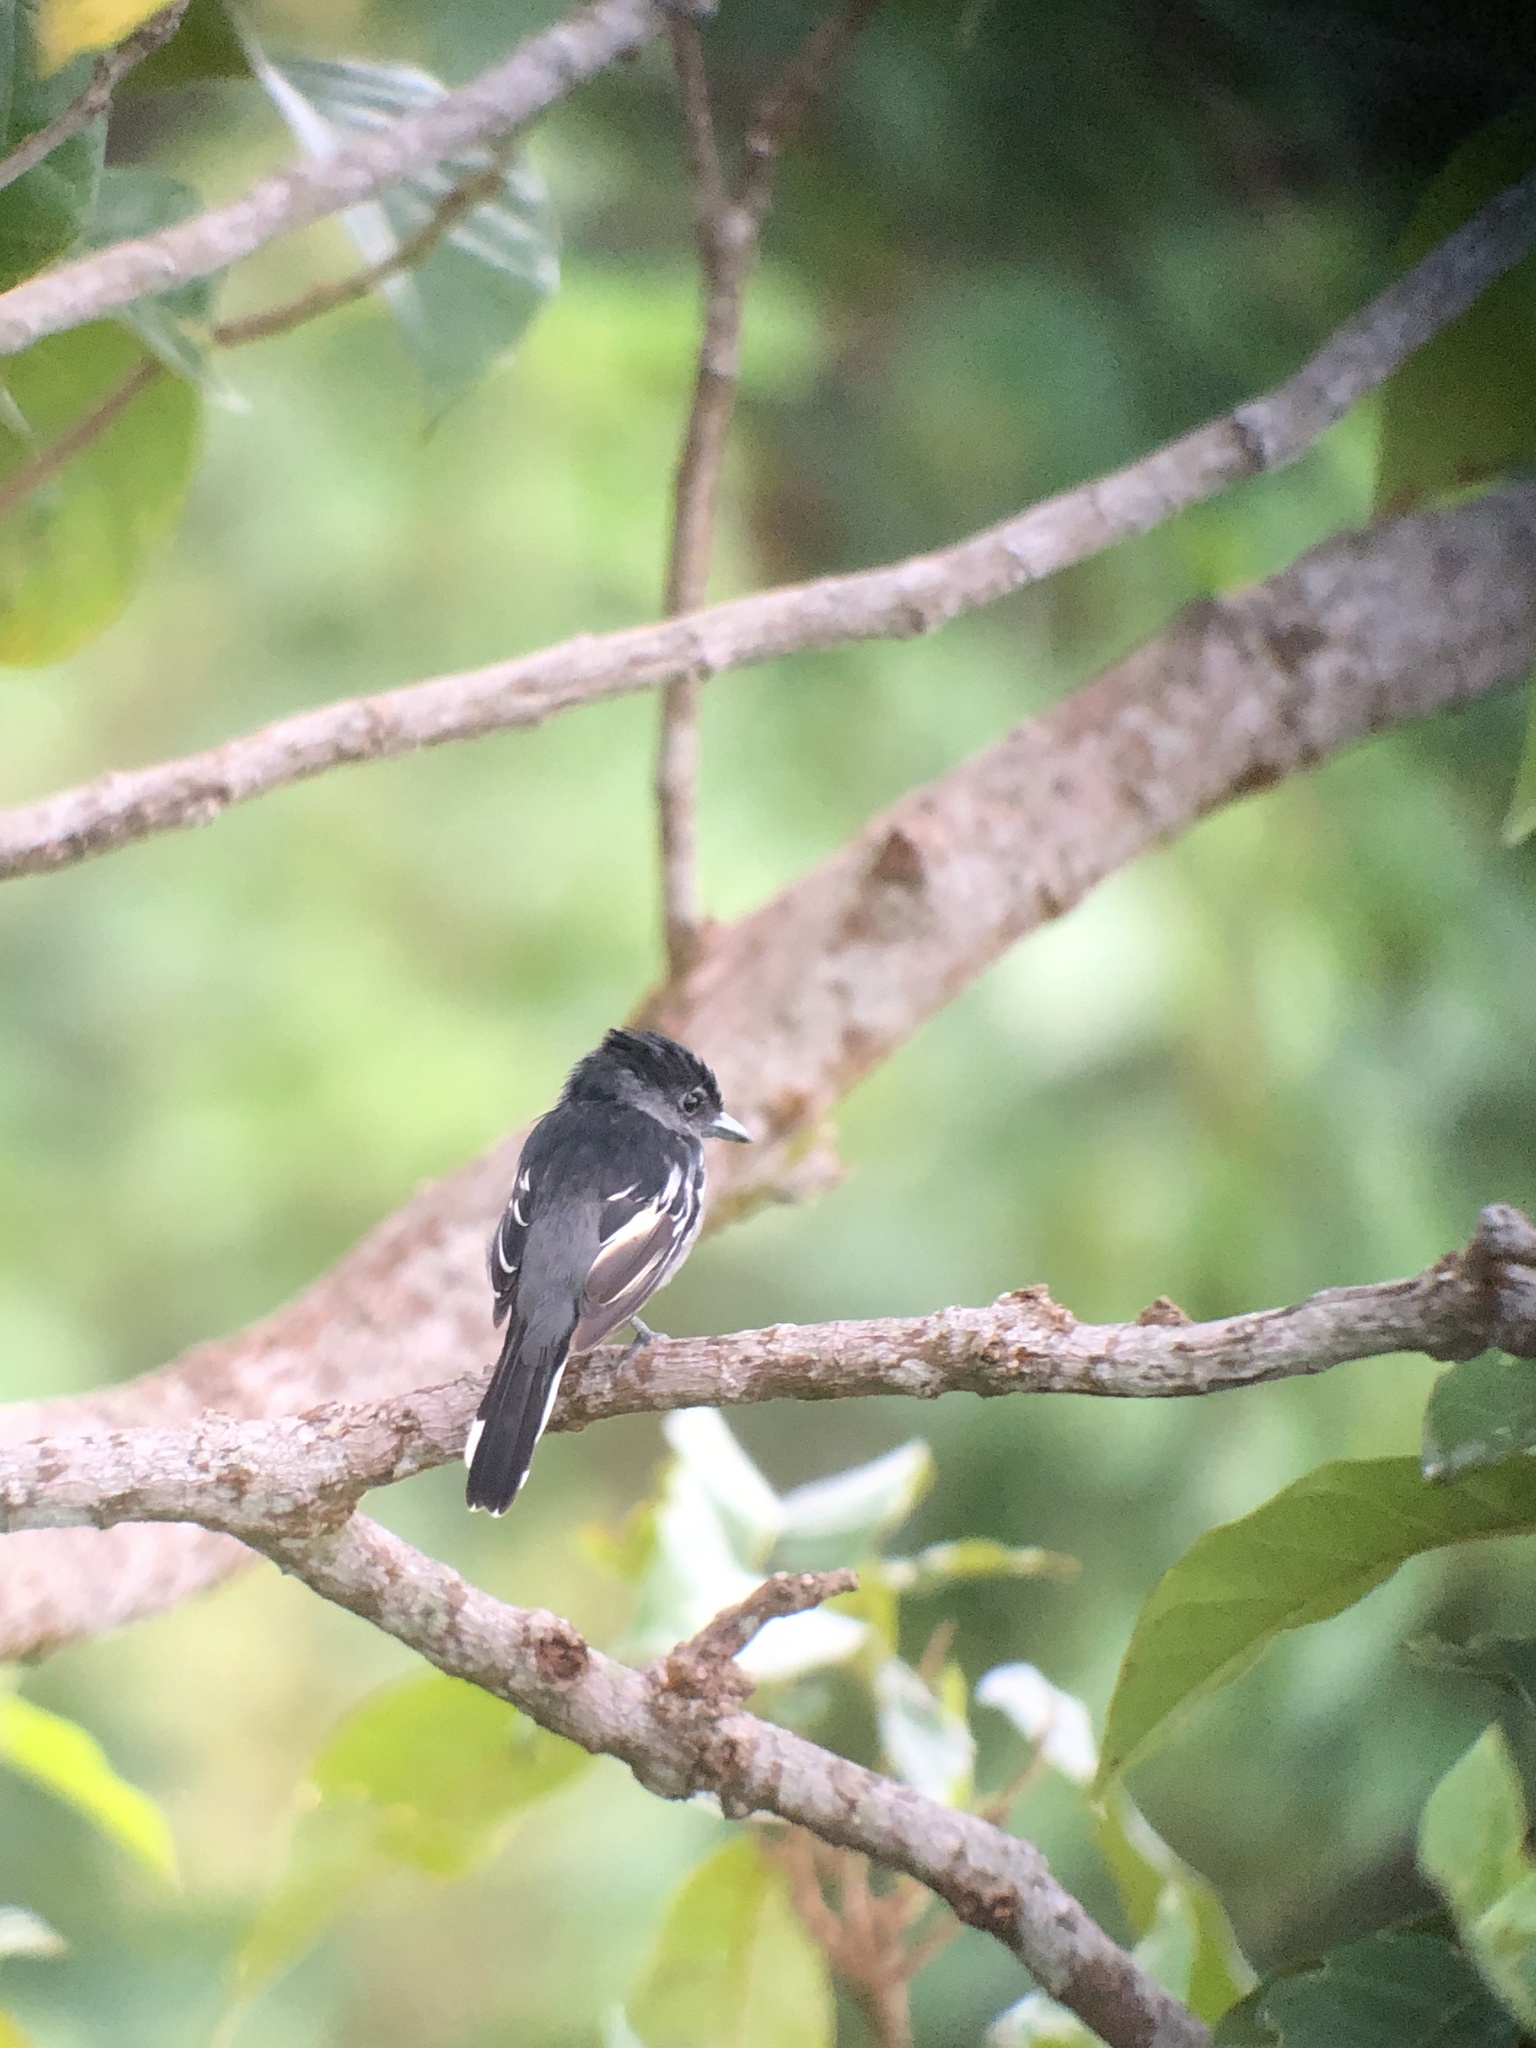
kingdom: Animalia
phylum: Chordata
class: Aves
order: Passeriformes
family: Cotingidae
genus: Pachyramphus
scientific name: Pachyramphus polychopterus
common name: White-winged becard
